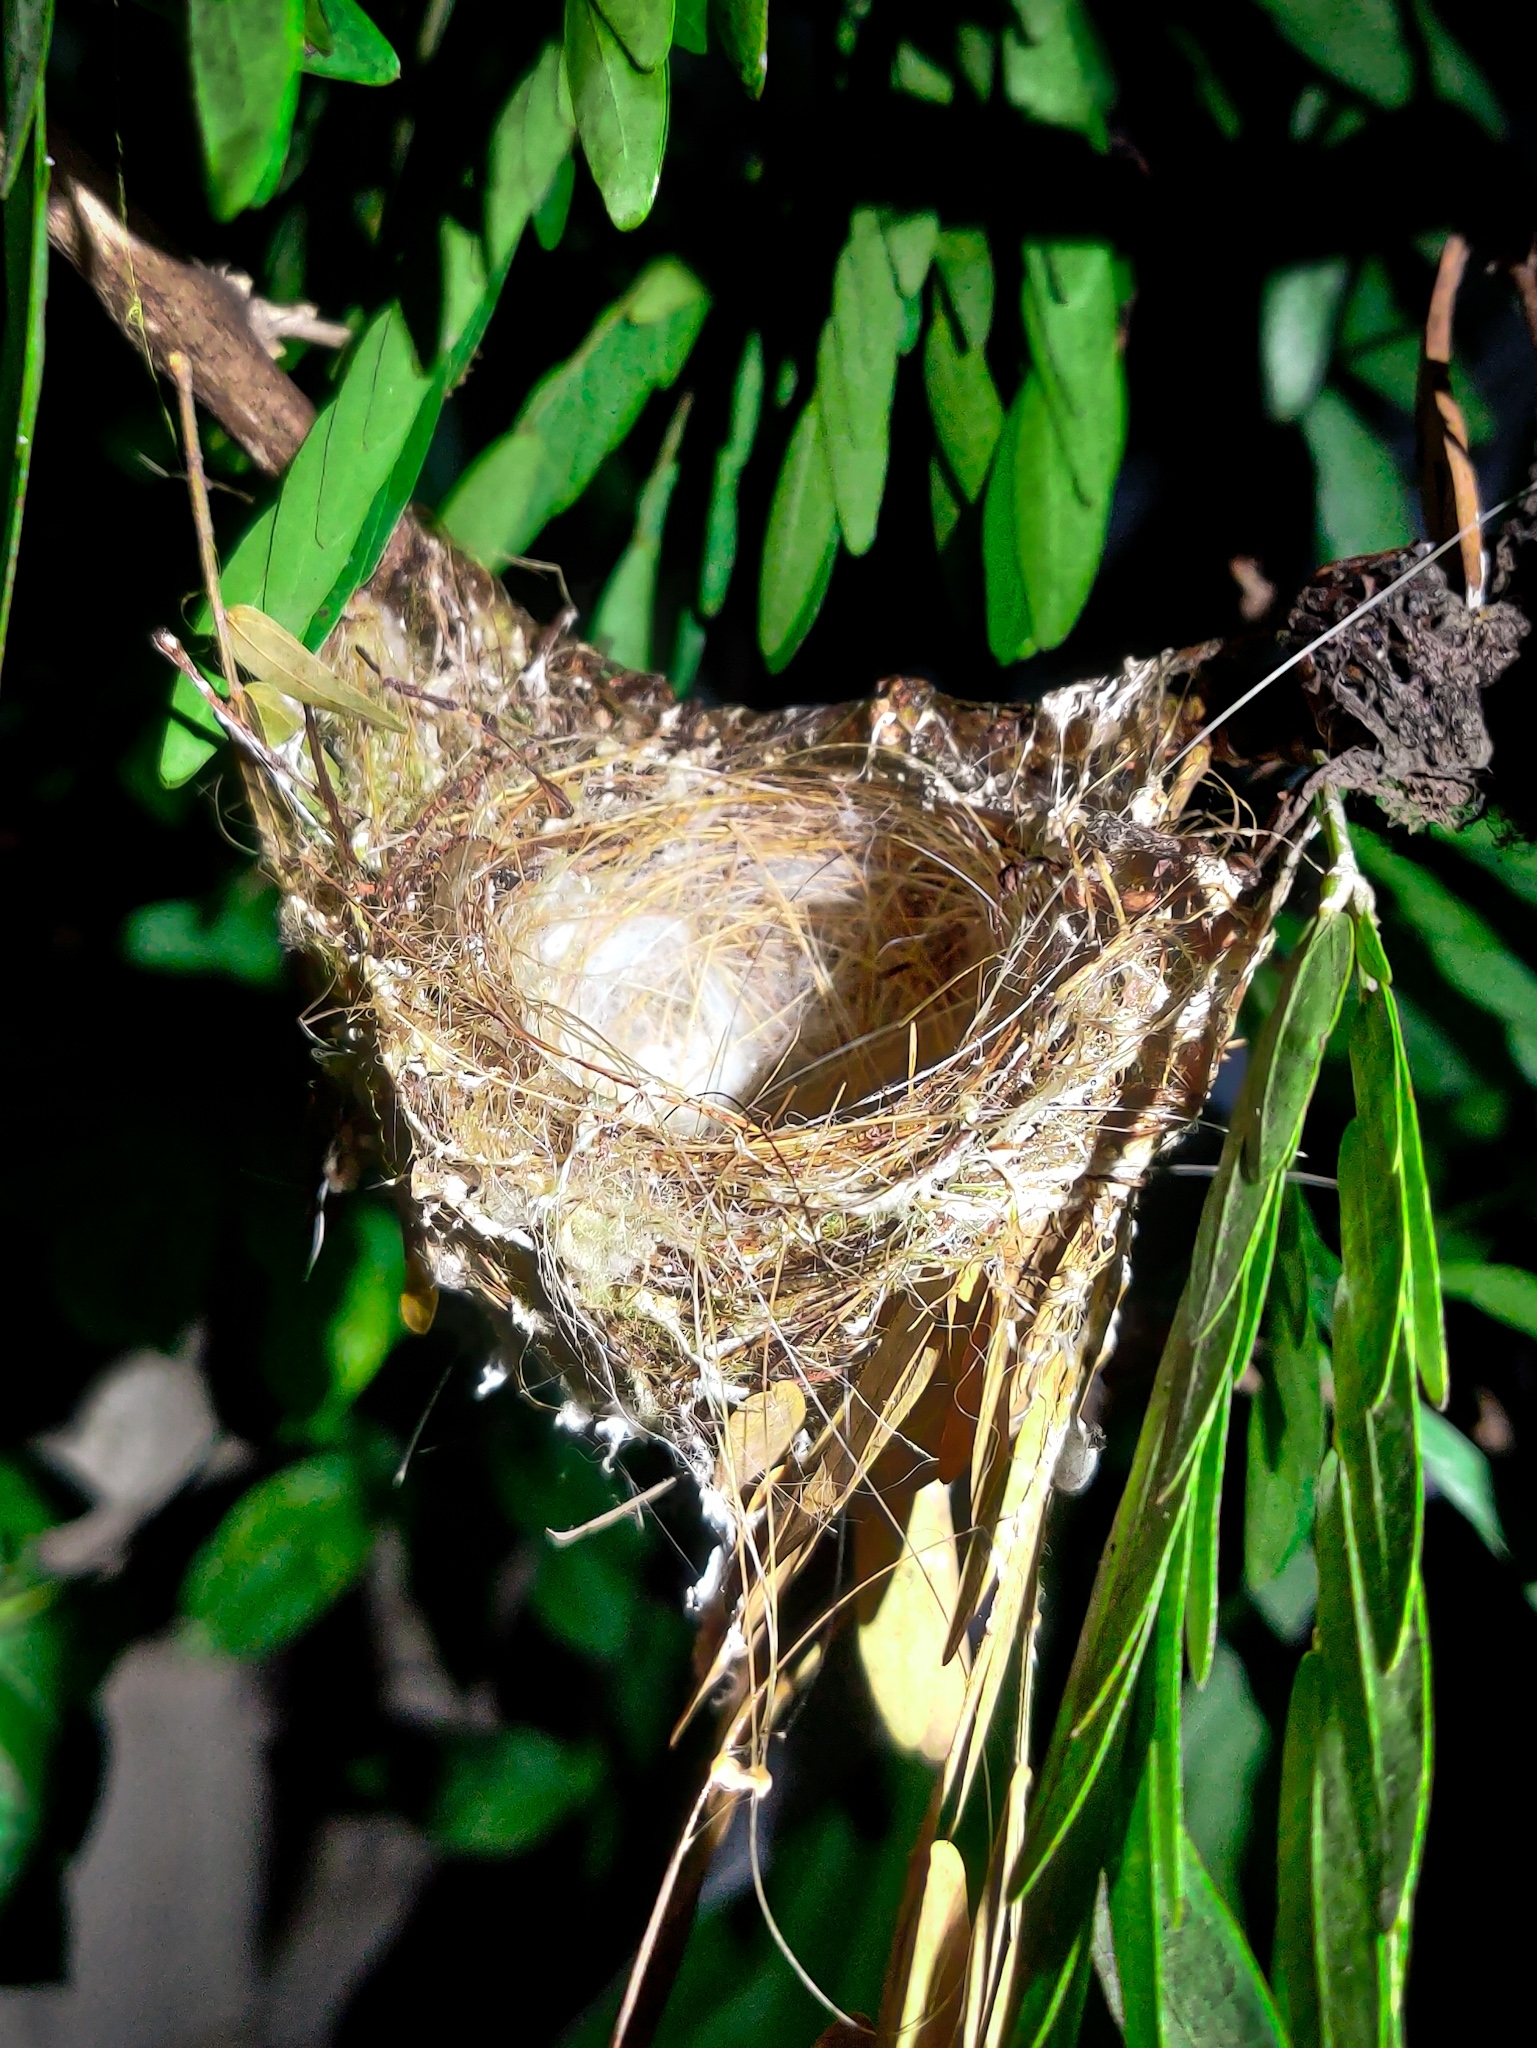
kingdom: Animalia
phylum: Chordata
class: Aves
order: Passeriformes
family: Zosteropidae
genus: Zosterops
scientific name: Zosterops palpebrosus
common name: Oriental white-eye
